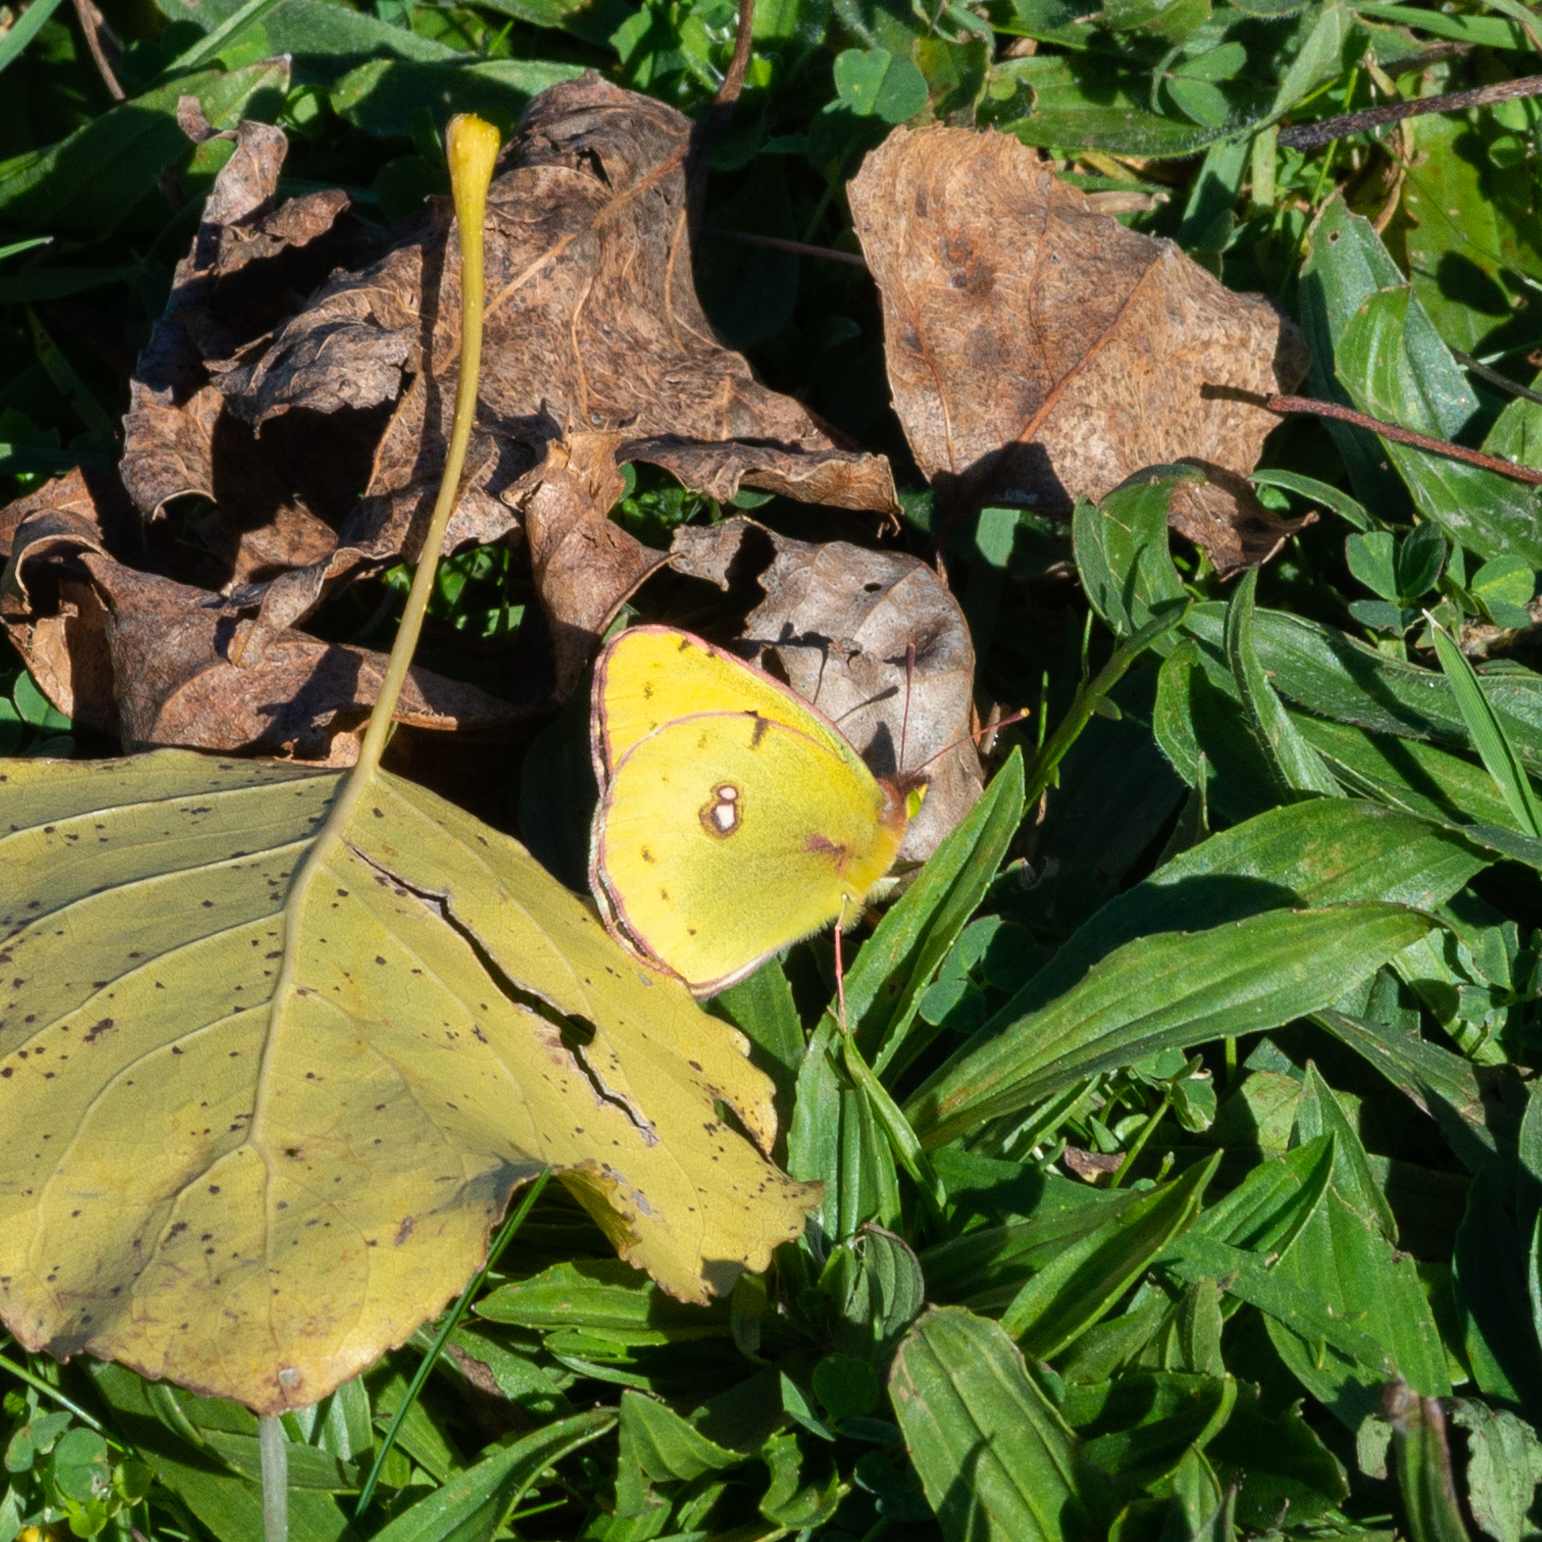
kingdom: Animalia
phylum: Arthropoda
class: Insecta
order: Lepidoptera
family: Pieridae
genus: Colias
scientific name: Colias croceus
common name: Clouded yellow
